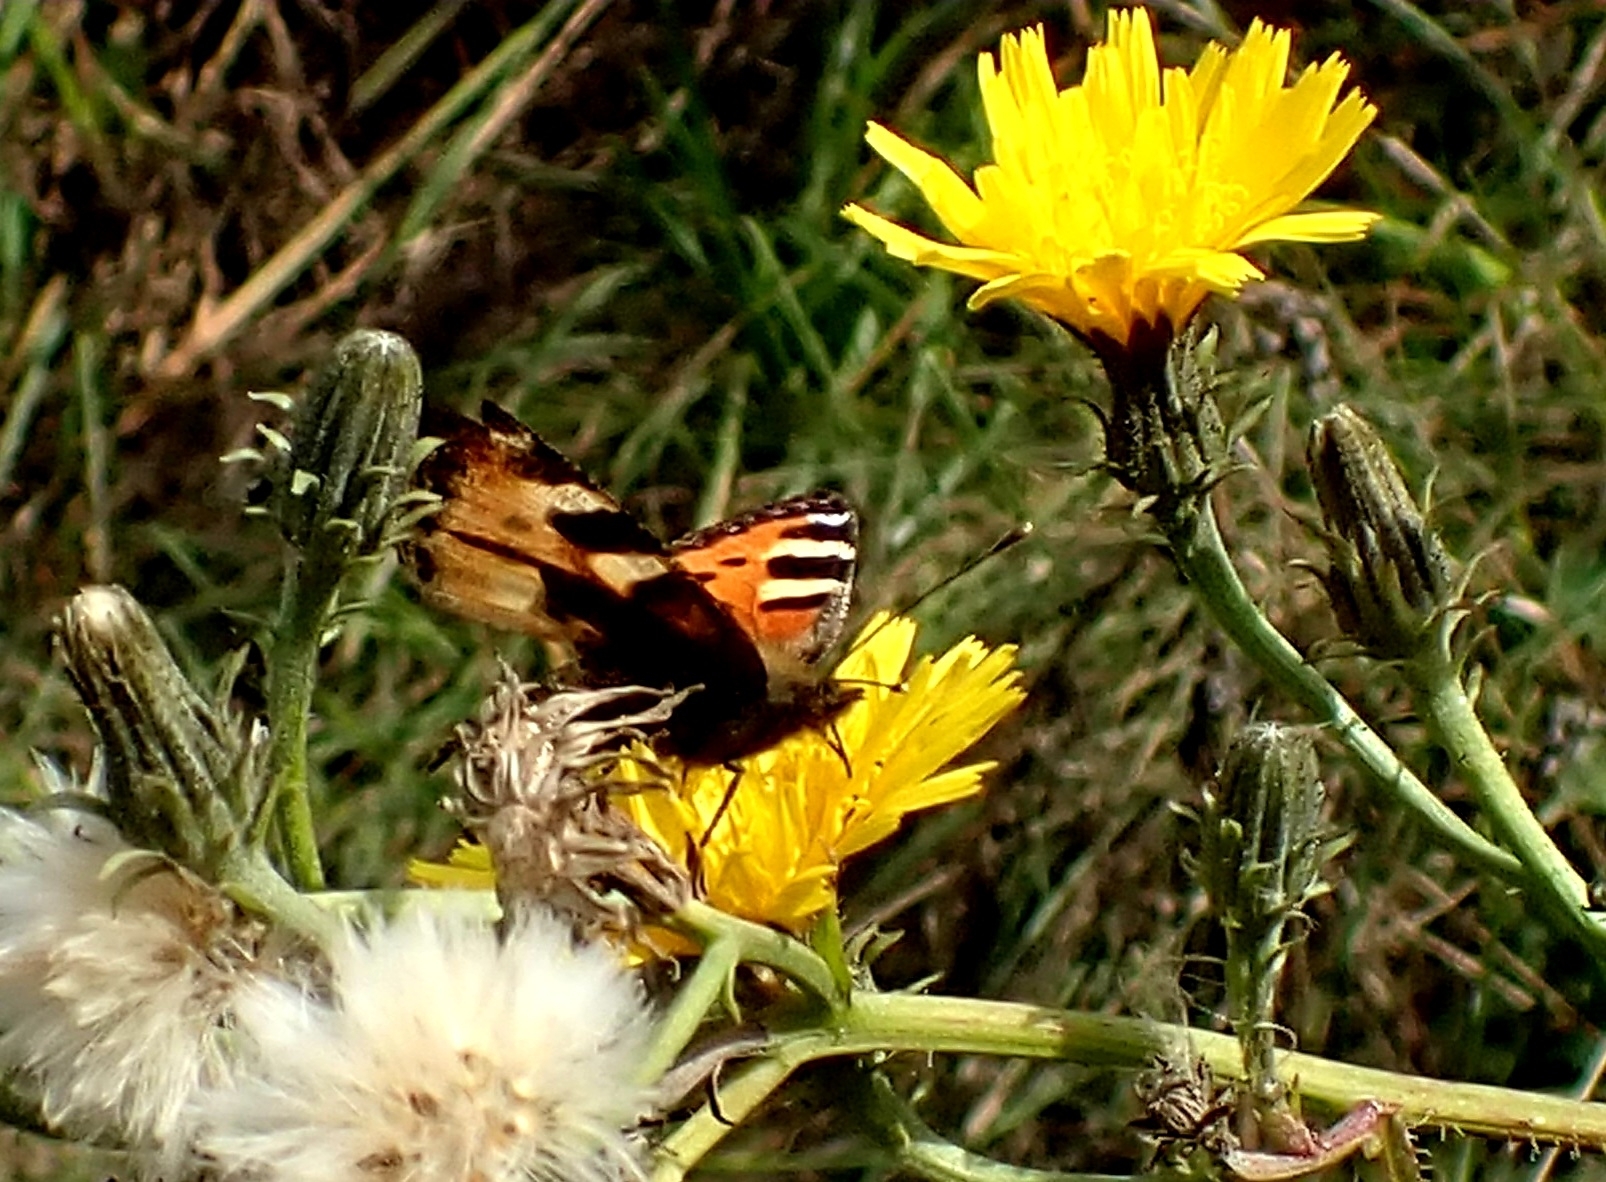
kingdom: Animalia
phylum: Arthropoda
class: Insecta
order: Lepidoptera
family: Nymphalidae
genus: Aglais
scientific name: Aglais urticae
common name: Small tortoiseshell
